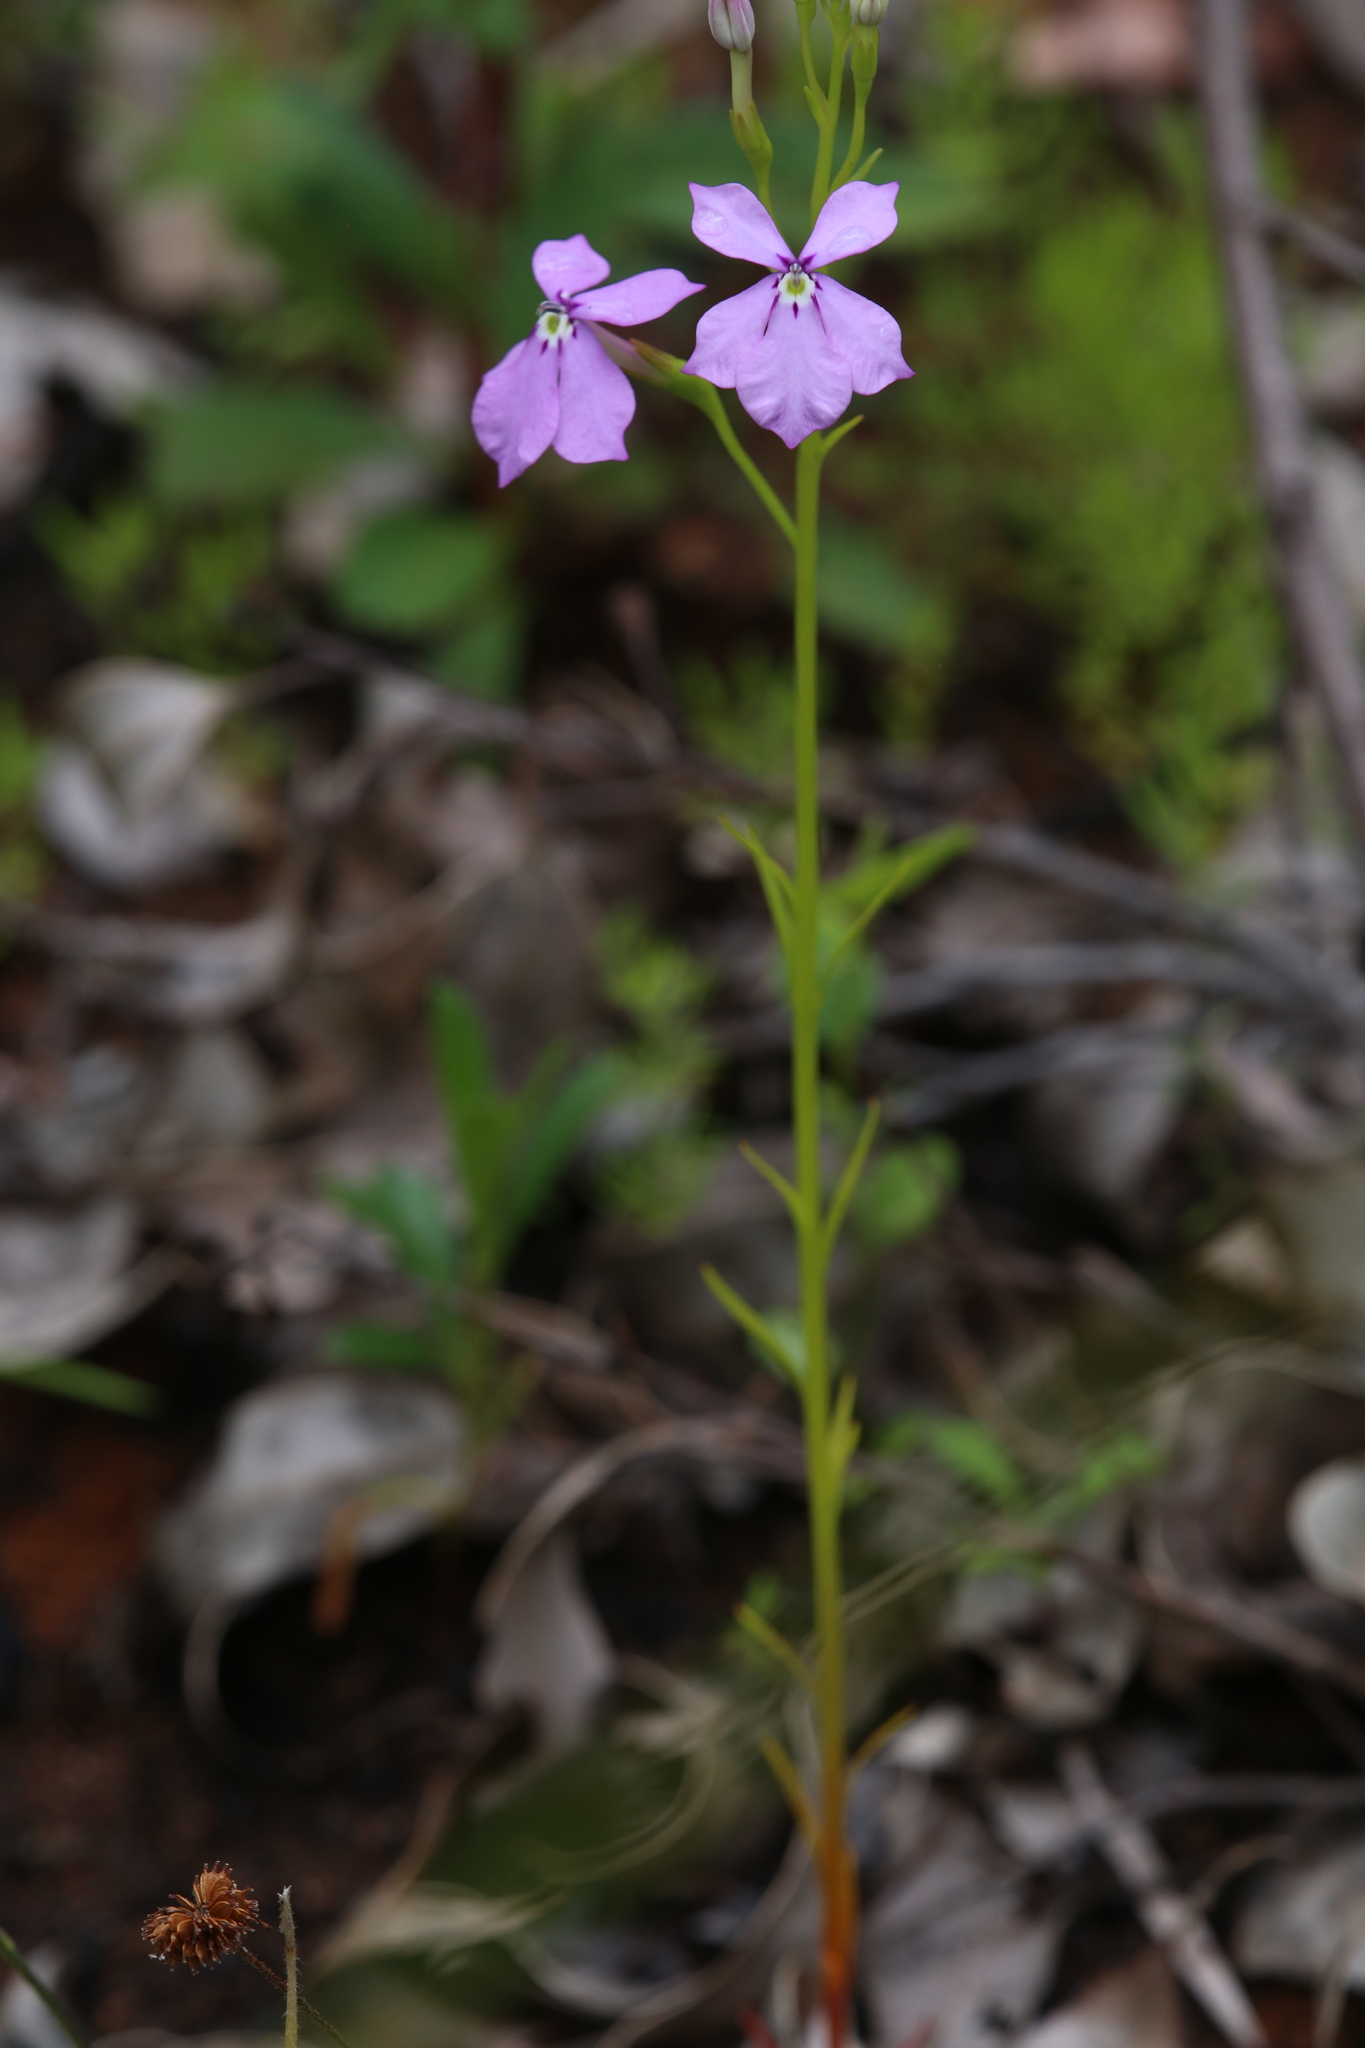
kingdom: Plantae
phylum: Tracheophyta
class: Magnoliopsida
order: Asterales
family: Campanulaceae
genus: Isotoma
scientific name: Isotoma hypocrateriformis
